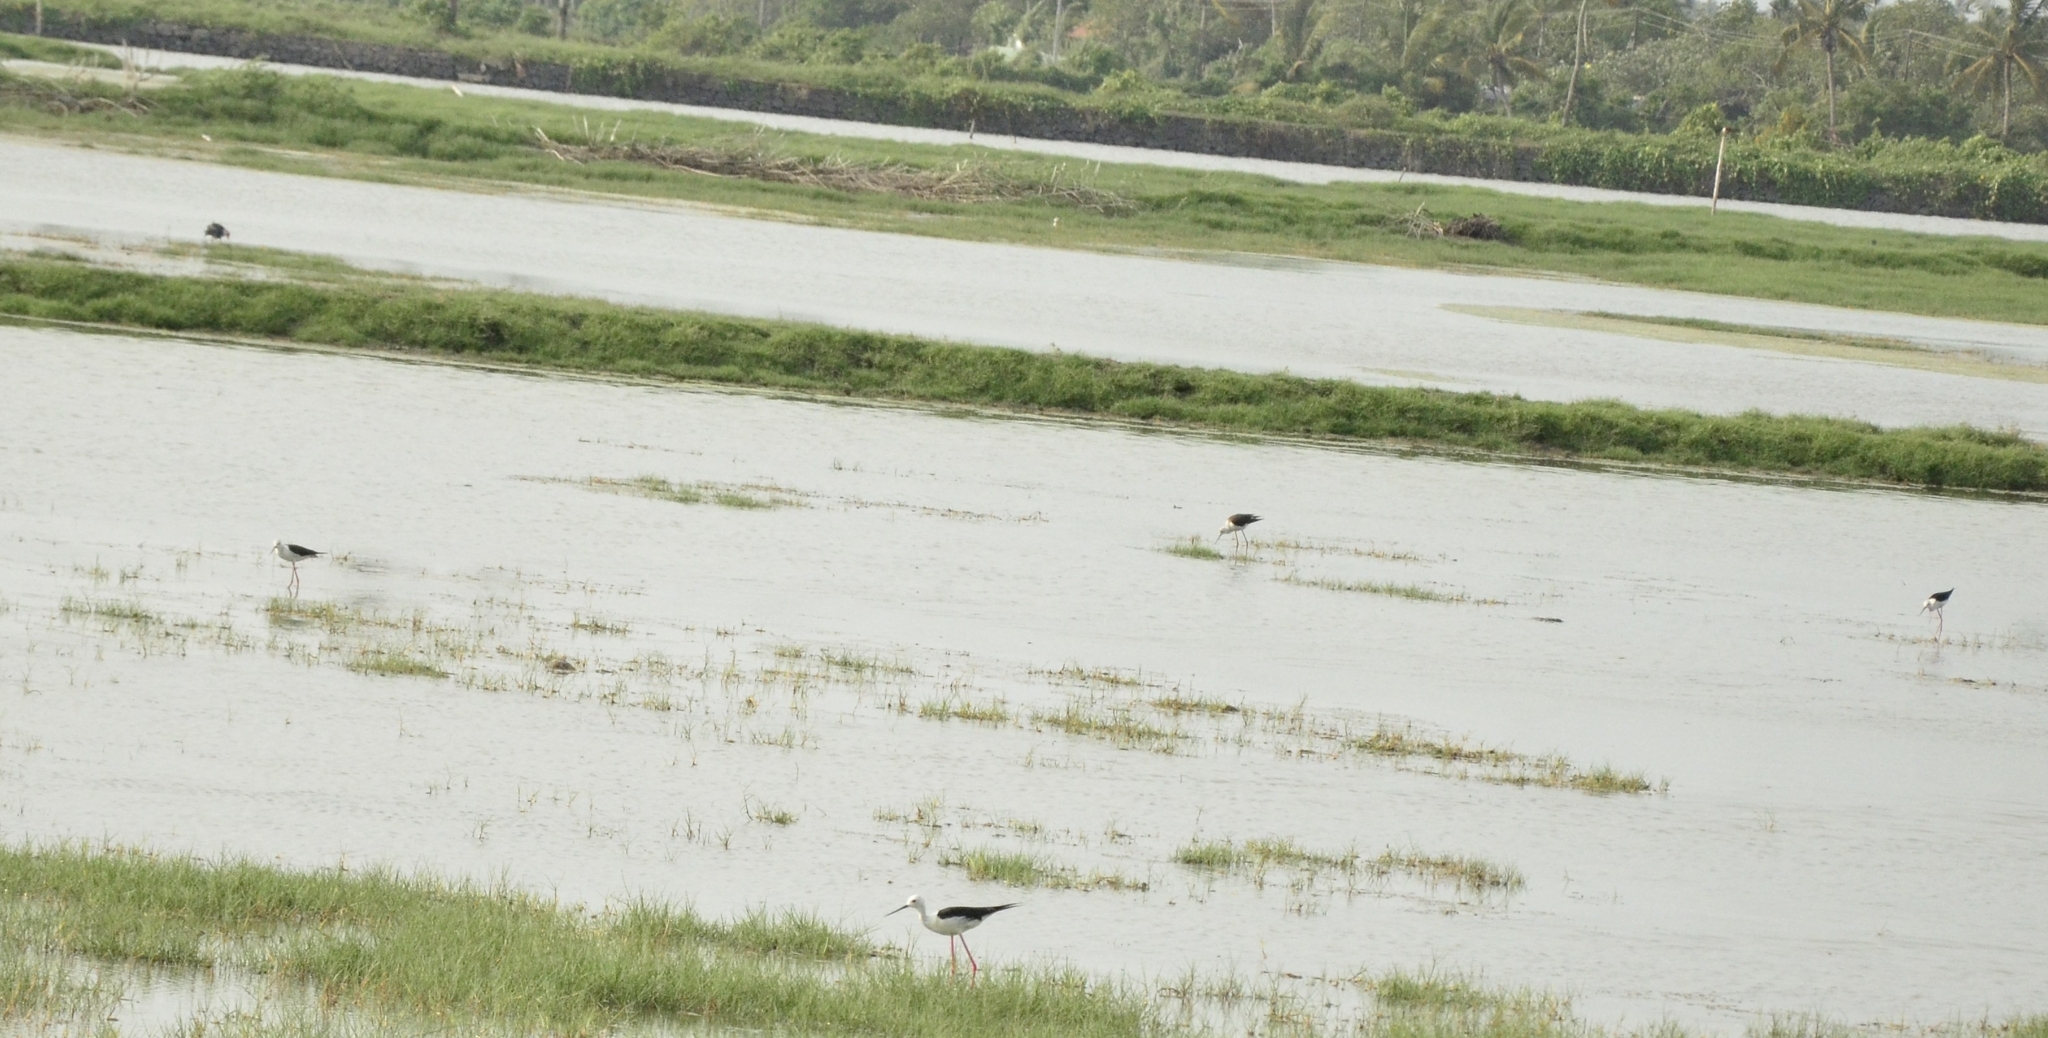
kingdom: Animalia
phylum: Chordata
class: Aves
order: Charadriiformes
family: Recurvirostridae
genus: Himantopus
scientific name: Himantopus himantopus
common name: Black-winged stilt
